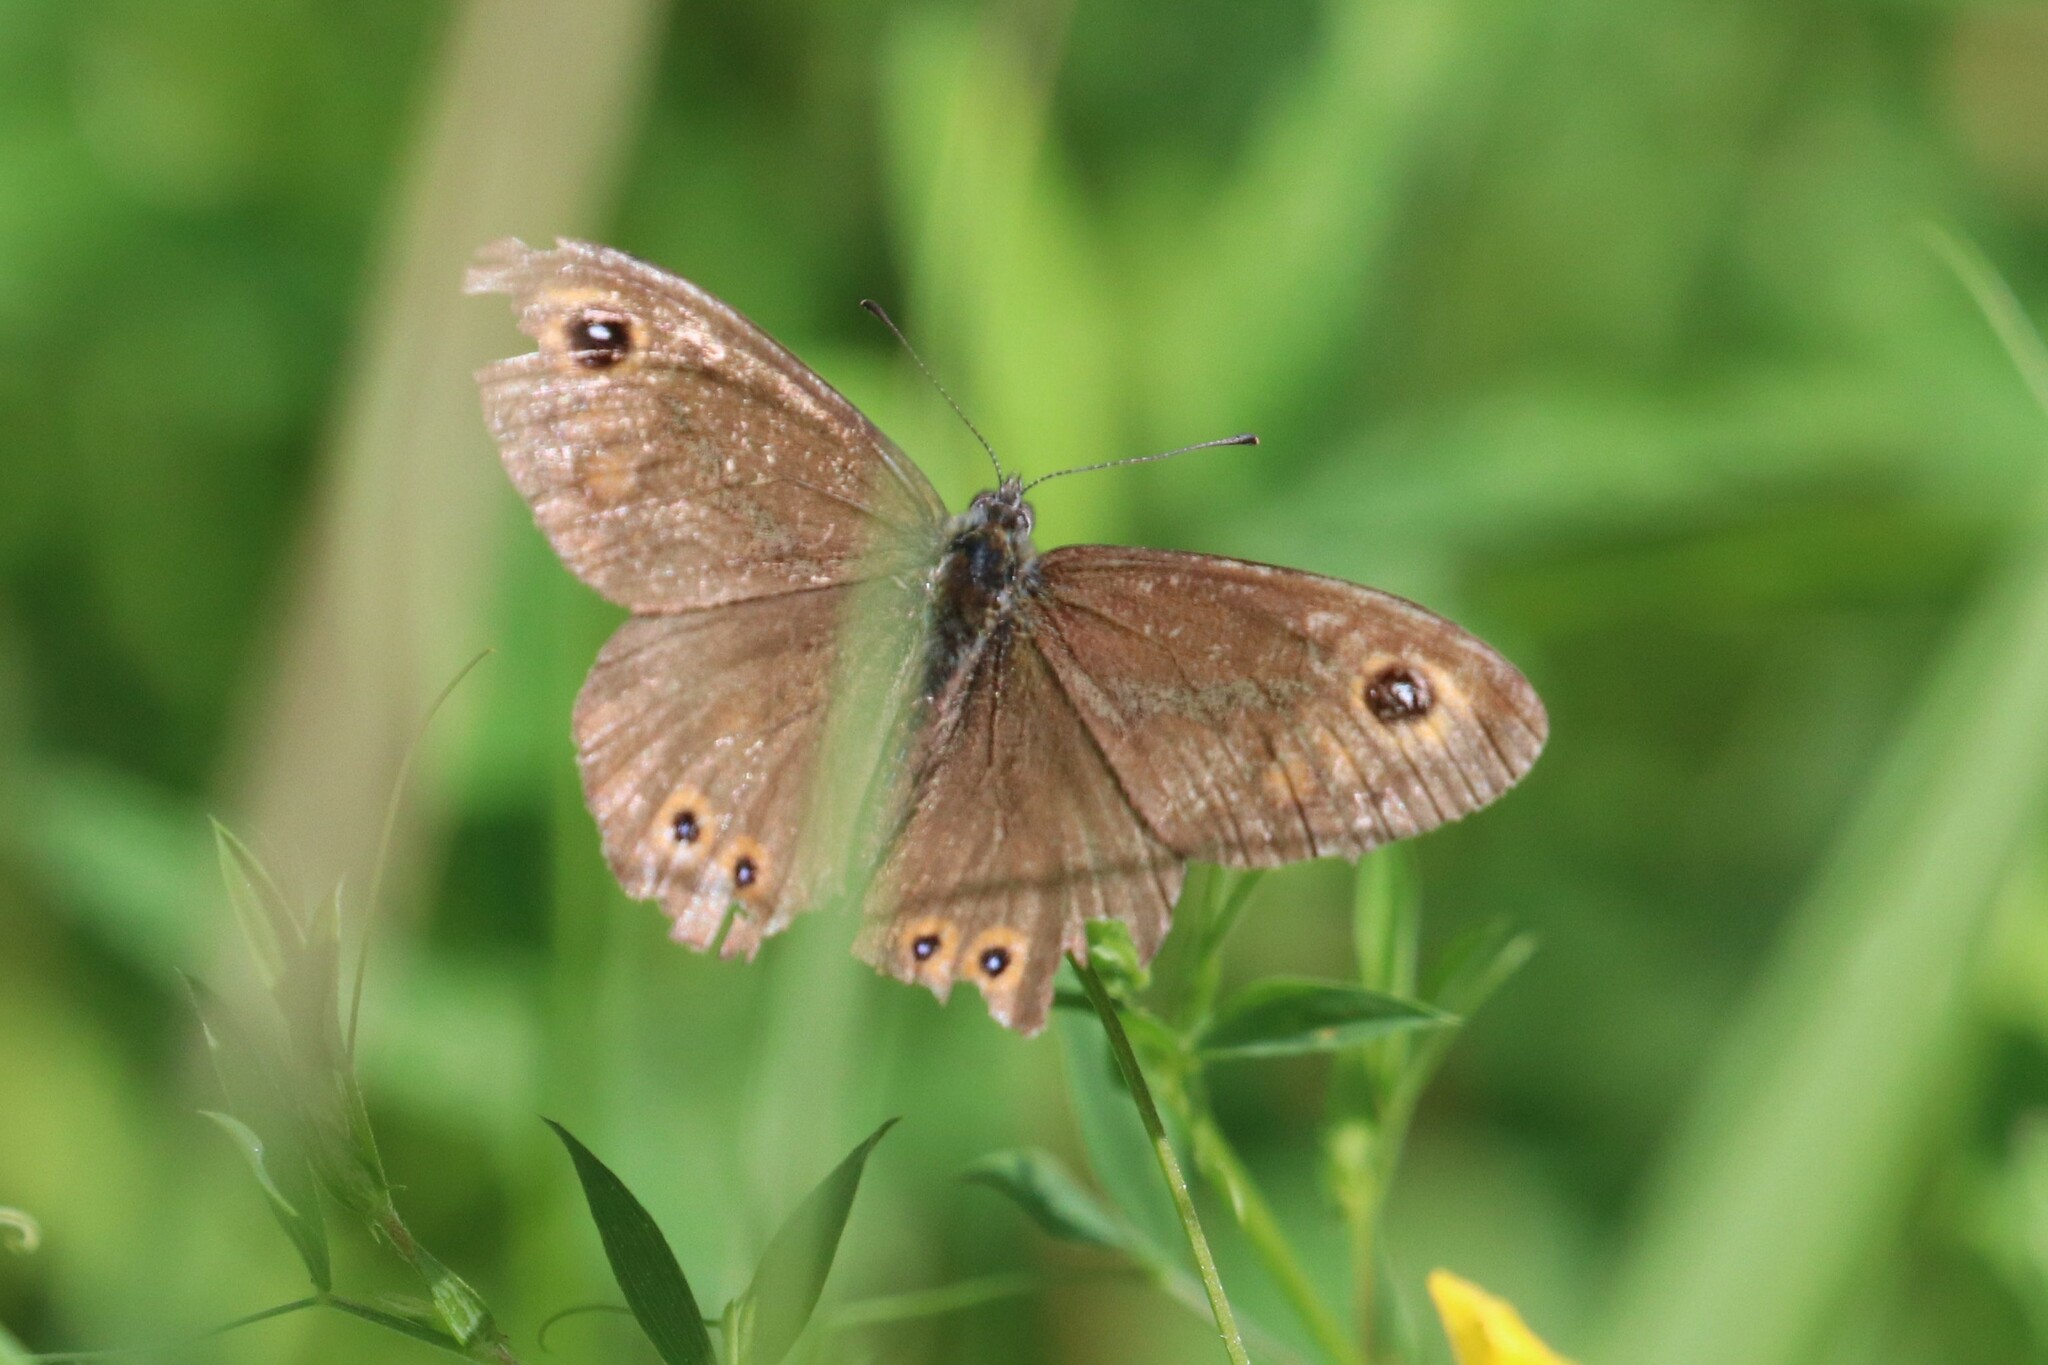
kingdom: Animalia
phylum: Arthropoda
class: Insecta
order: Lepidoptera
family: Nymphalidae
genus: Pararge
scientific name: Pararge Lasiommata maera
